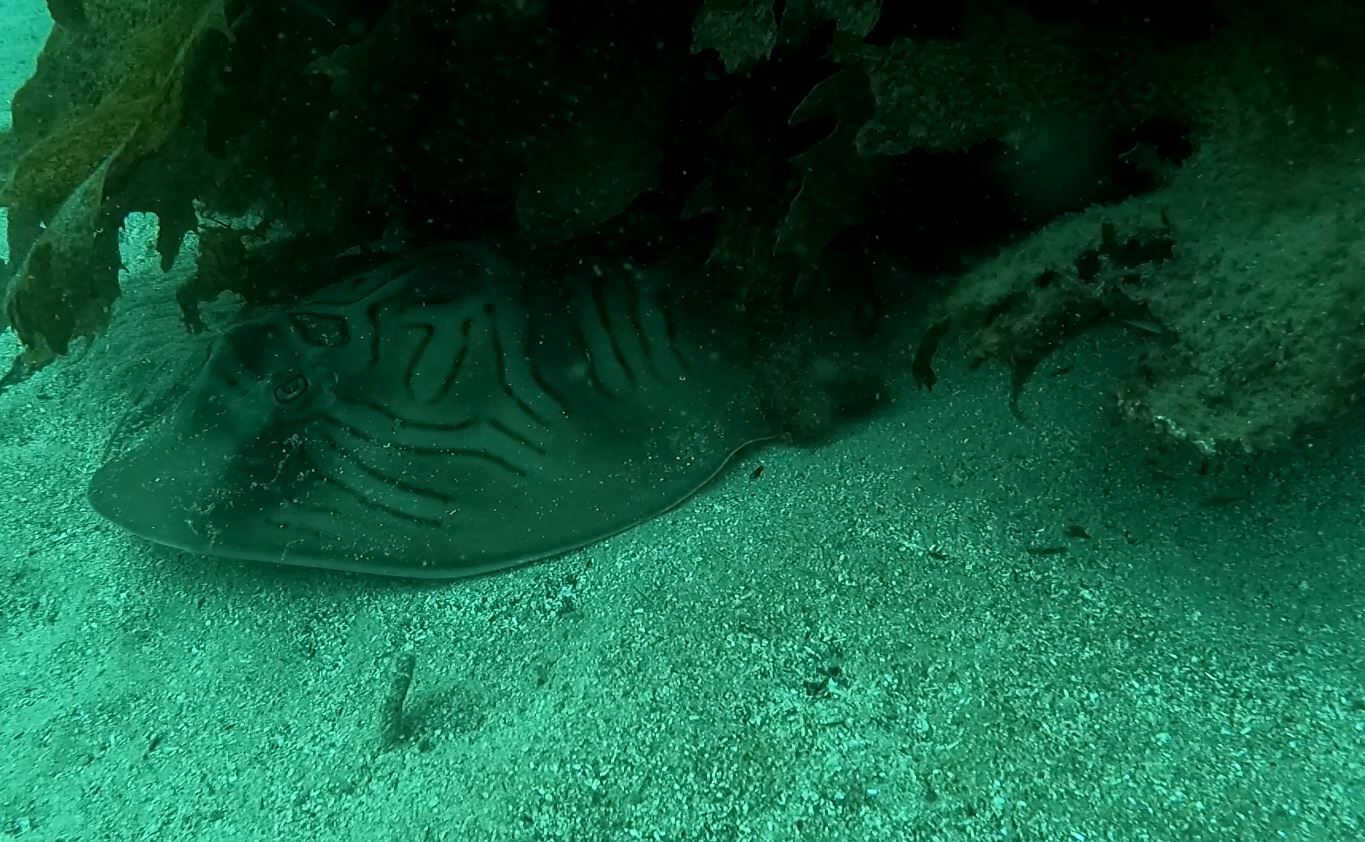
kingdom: Animalia
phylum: Chordata
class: Elasmobranchii
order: Rhinopristiformes
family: Rhinobatidae
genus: Trygonorrhina
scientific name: Trygonorrhina fasciata
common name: Southern fiddler
